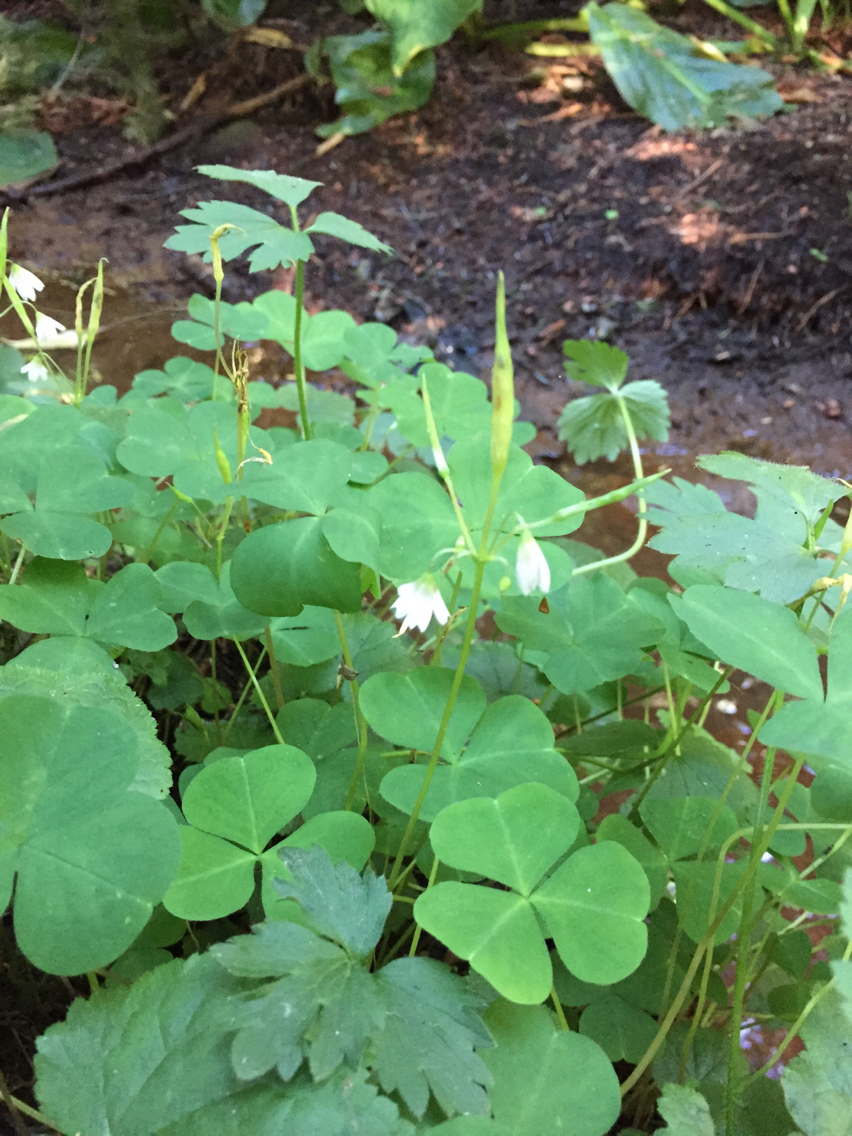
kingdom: Plantae
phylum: Tracheophyta
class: Magnoliopsida
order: Oxalidales
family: Oxalidaceae
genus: Oxalis
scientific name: Oxalis trilliifolia
